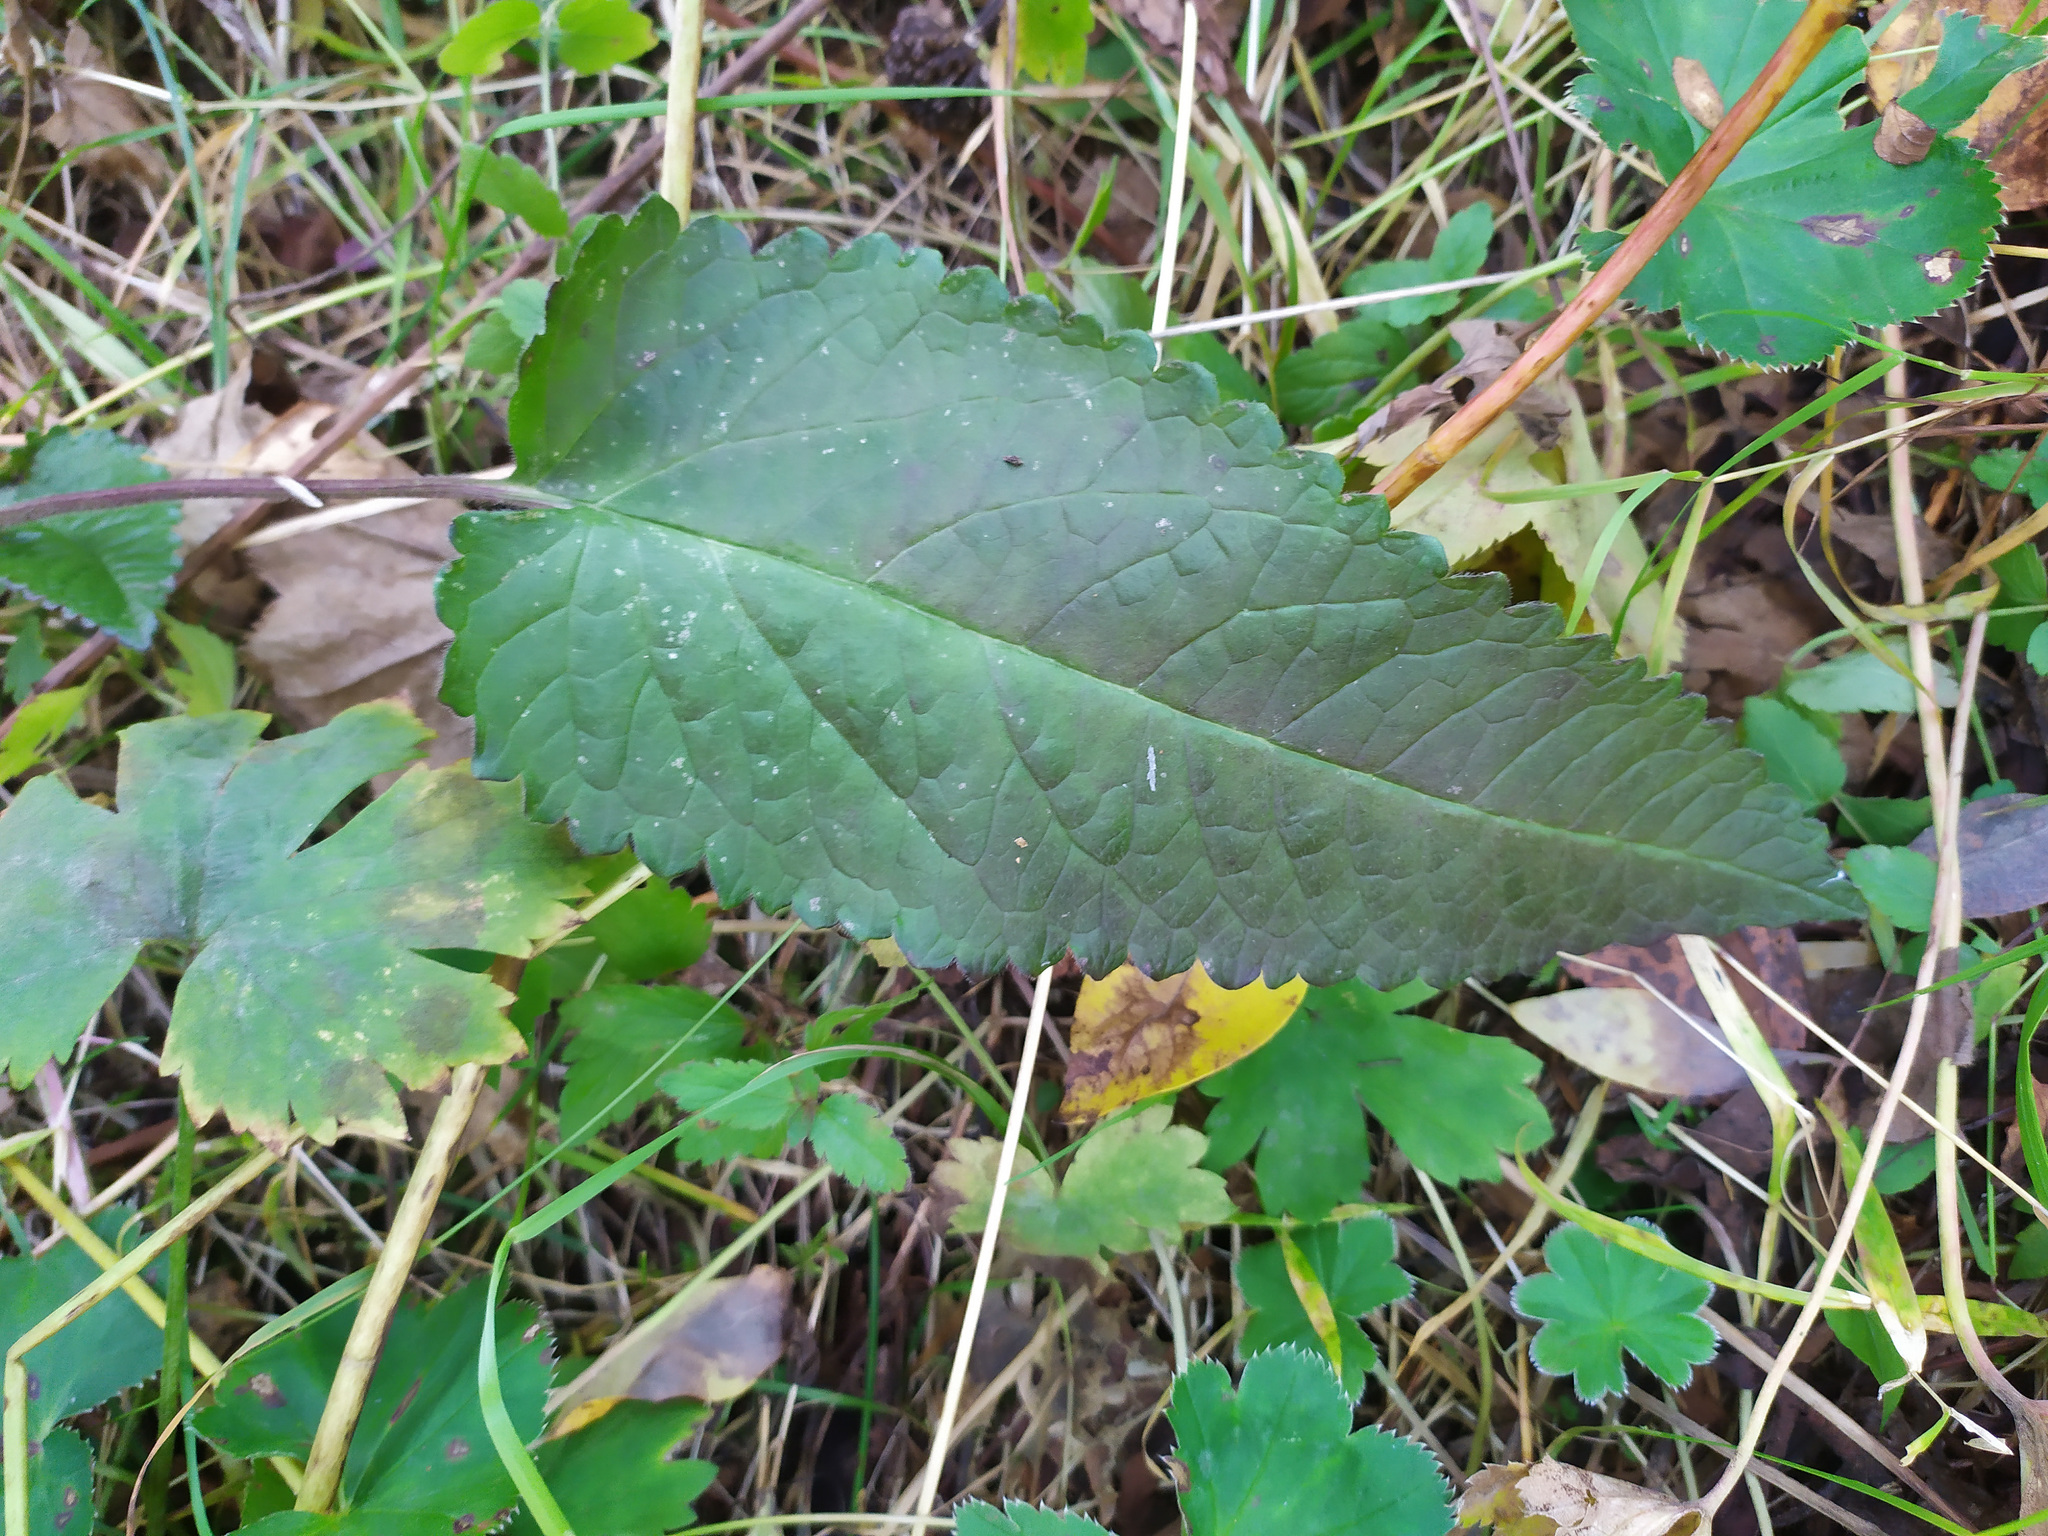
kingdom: Plantae
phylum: Tracheophyta
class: Magnoliopsida
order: Lamiales
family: Lamiaceae
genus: Betonica
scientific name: Betonica officinalis
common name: Bishop's-wort
